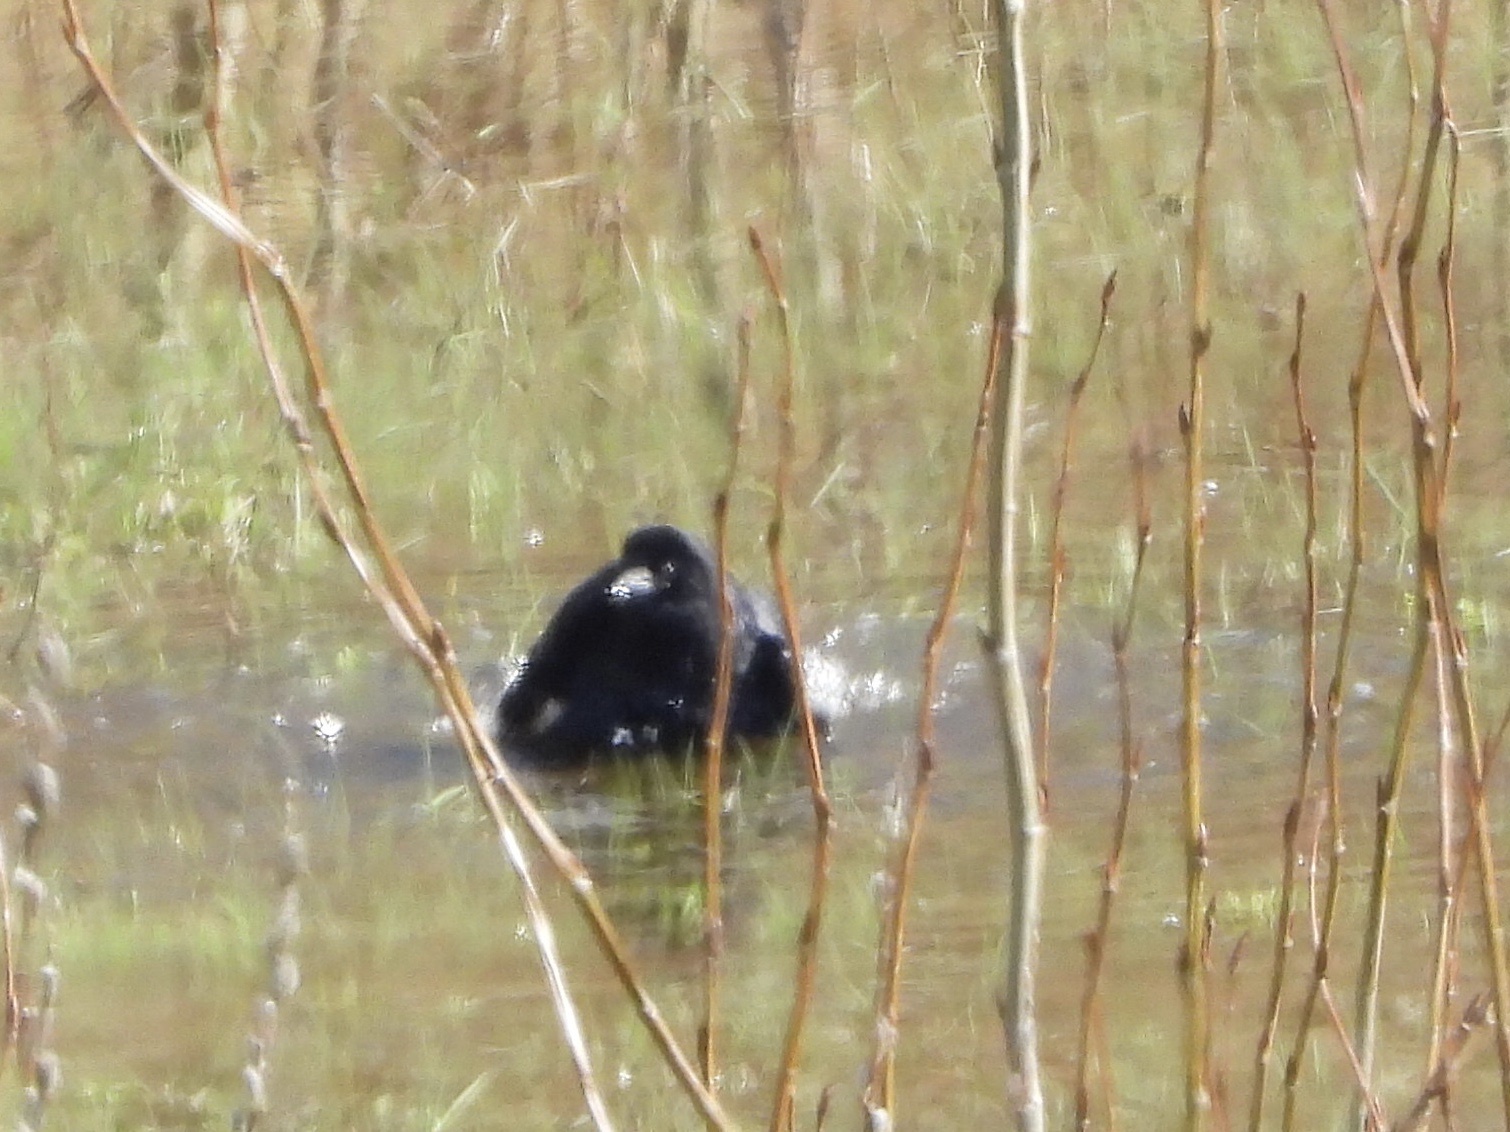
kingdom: Animalia
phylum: Chordata
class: Aves
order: Passeriformes
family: Corvidae
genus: Corvus
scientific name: Corvus brachyrhynchos
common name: American crow
